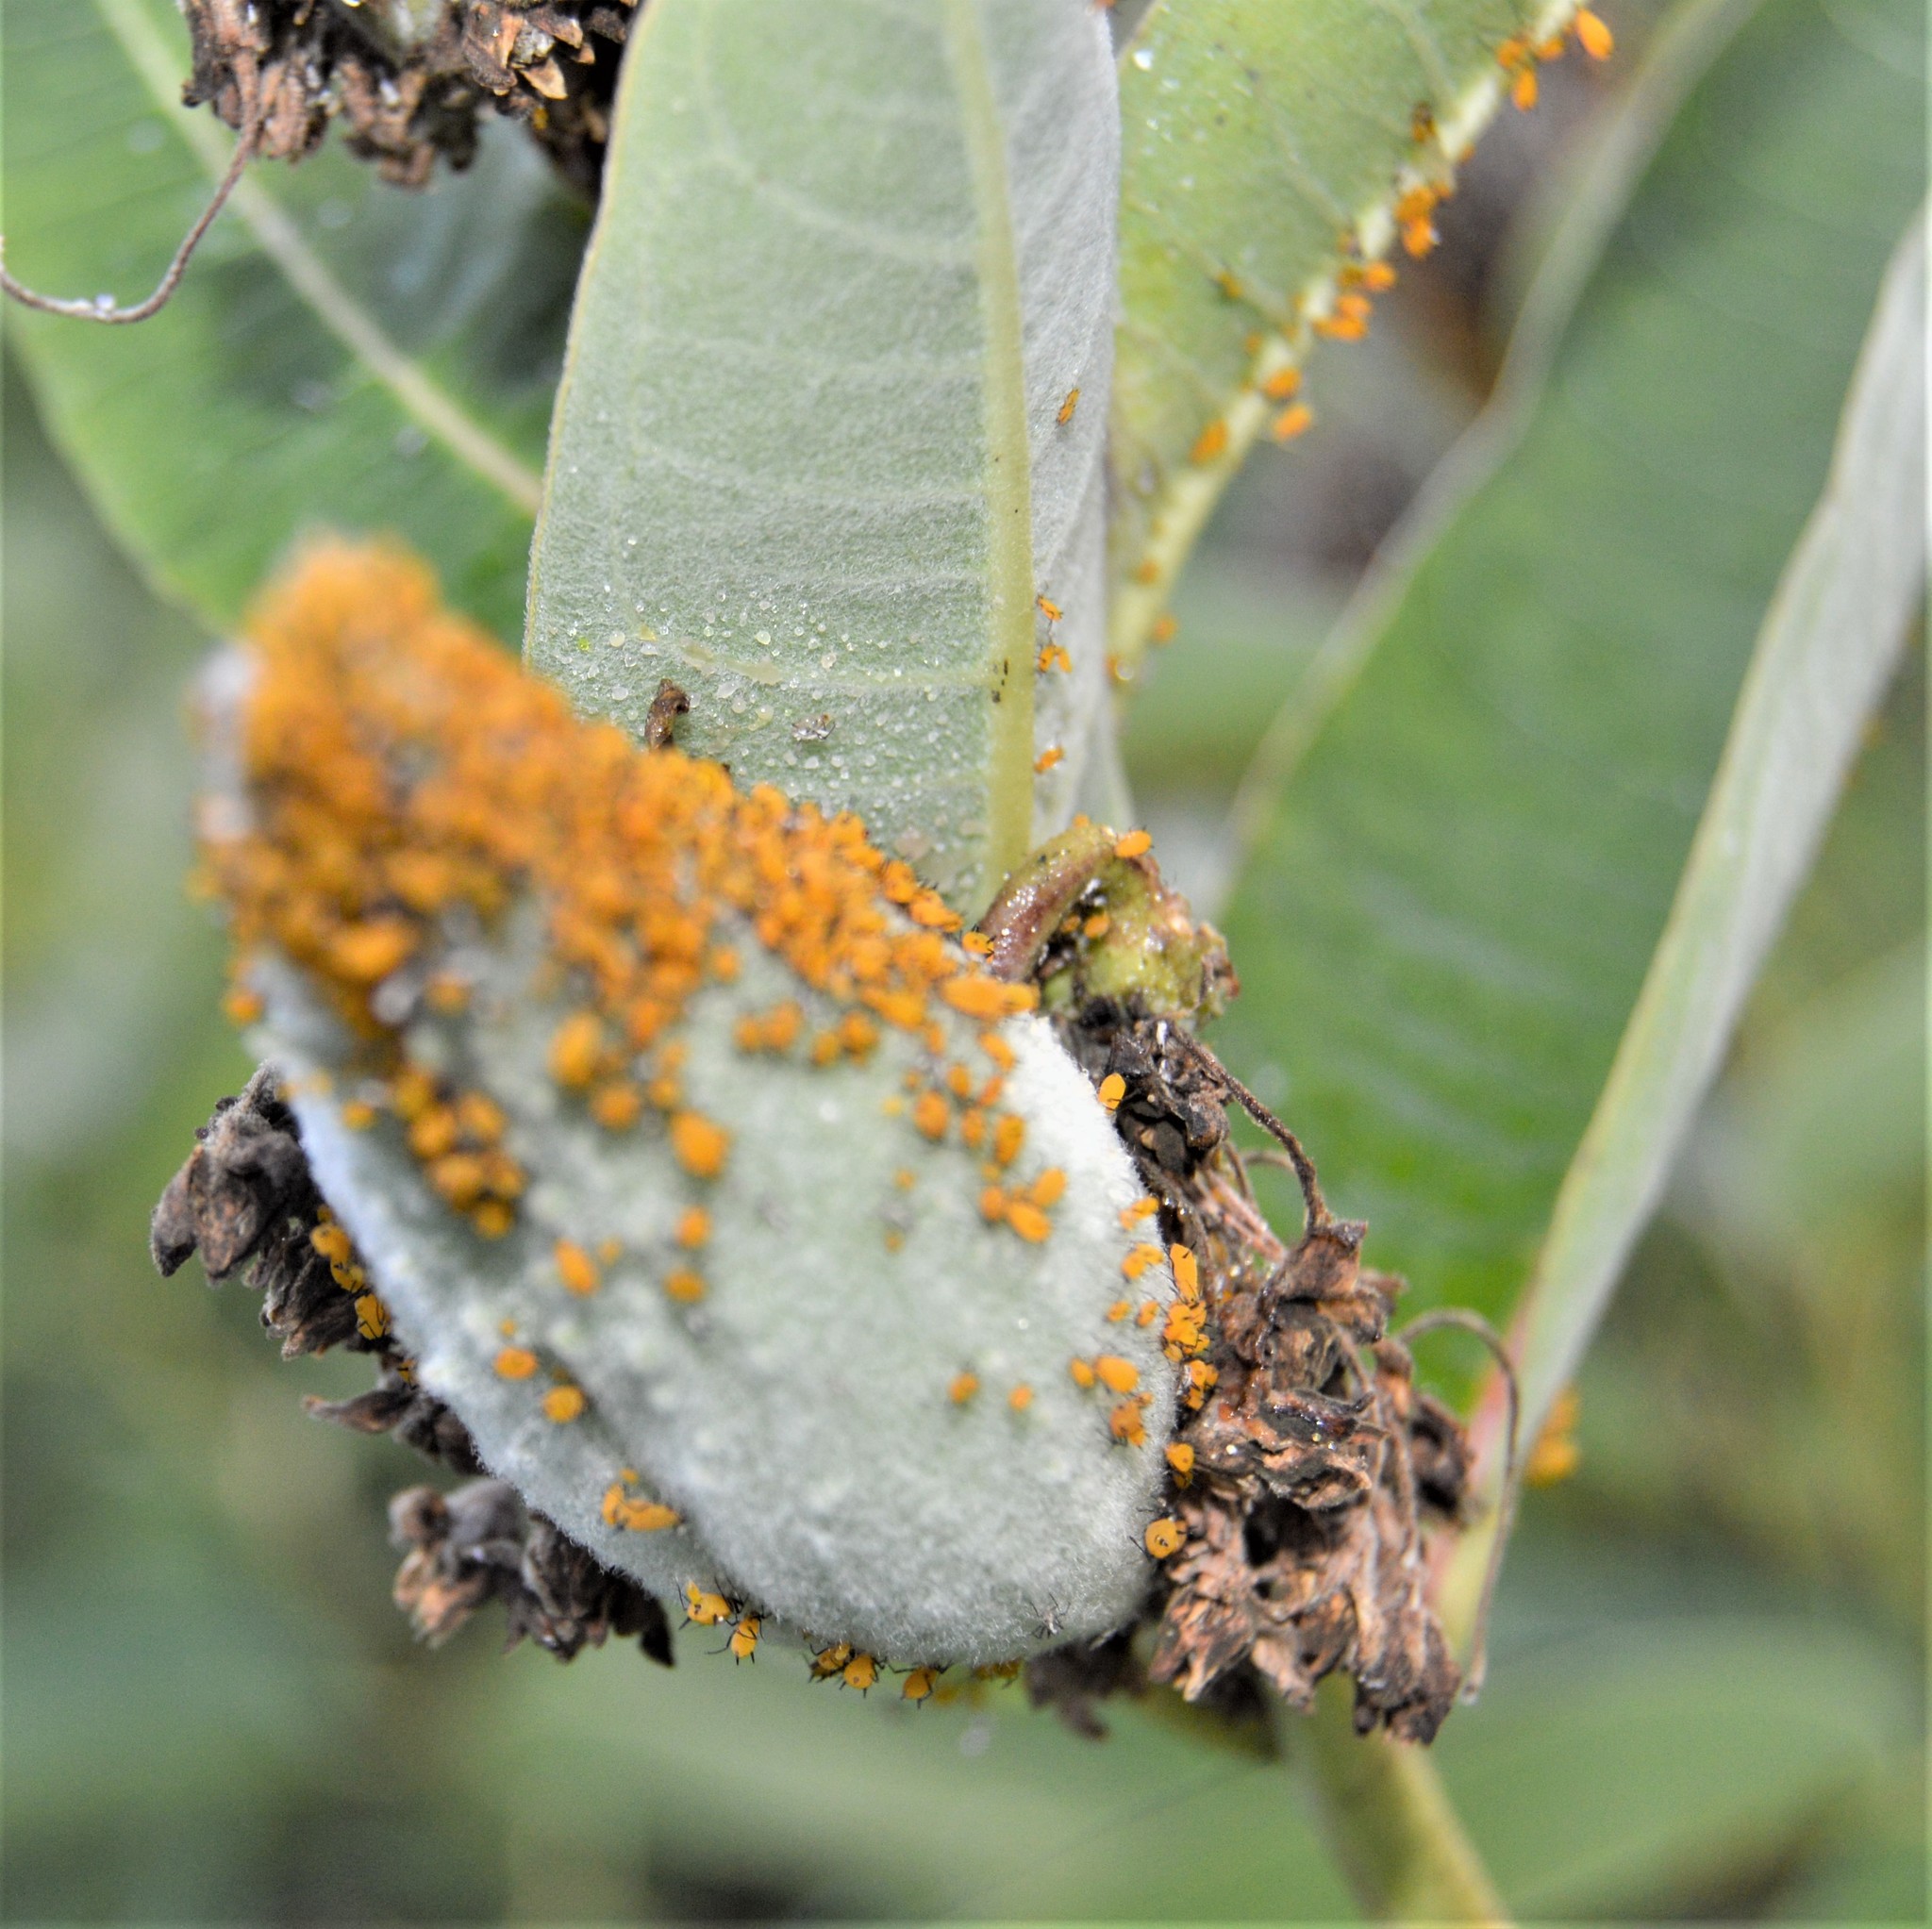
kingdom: Animalia
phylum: Arthropoda
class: Insecta
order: Hemiptera
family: Aphididae
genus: Aphis
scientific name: Aphis nerii
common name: Oleander aphid
